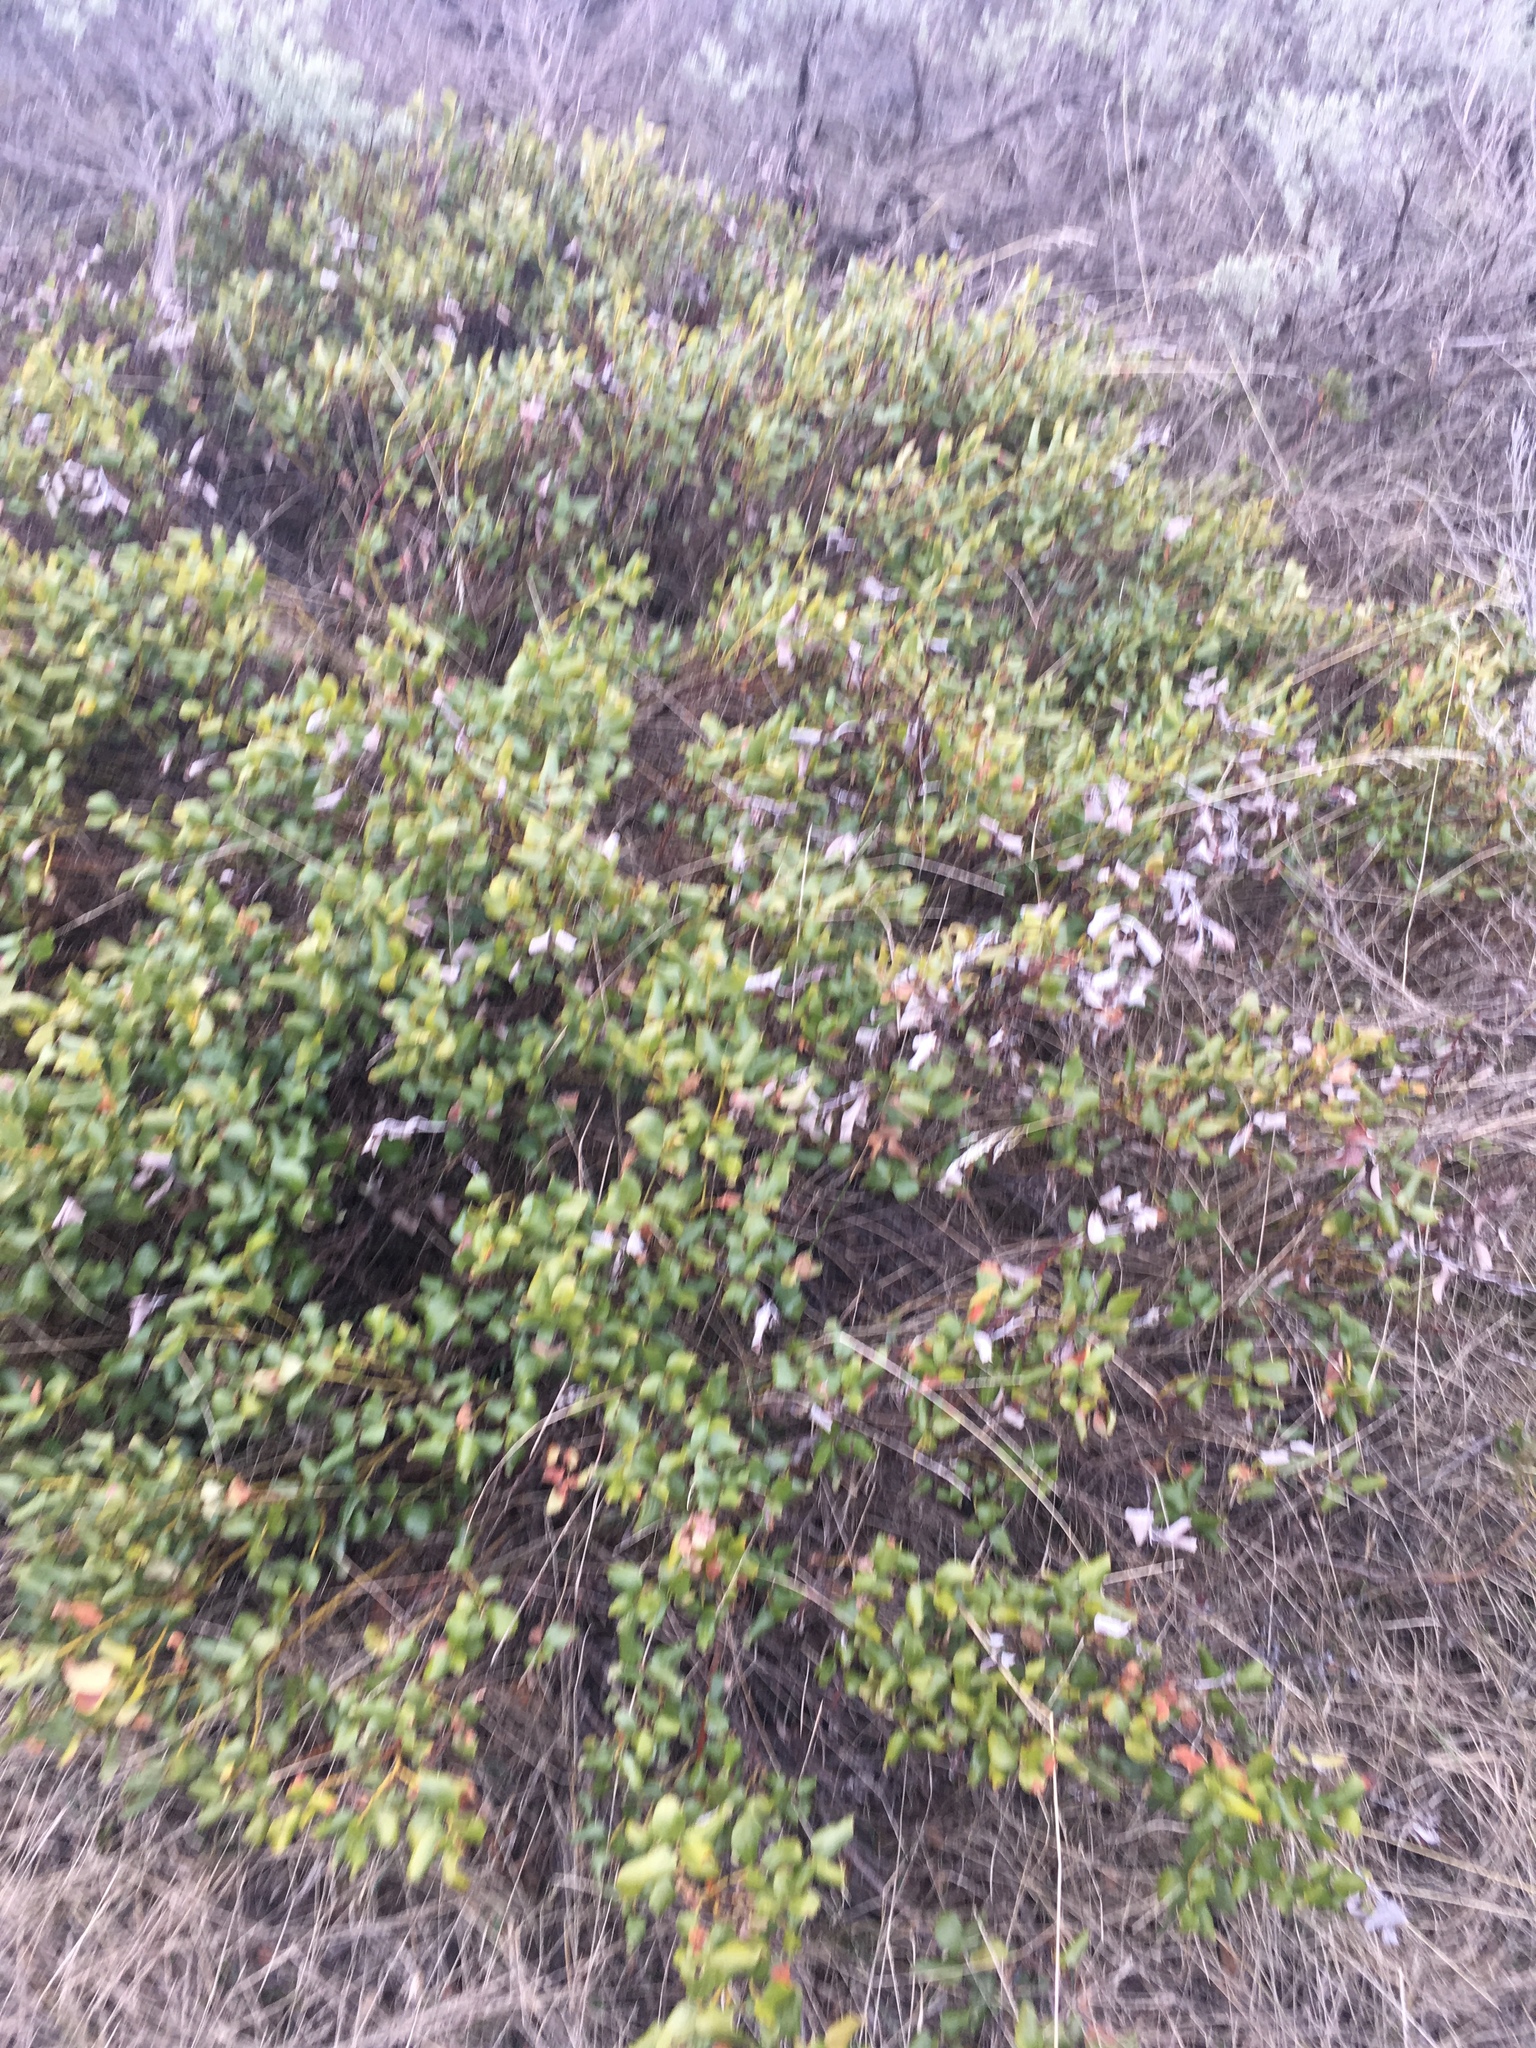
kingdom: Plantae
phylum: Tracheophyta
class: Magnoliopsida
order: Rosales
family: Rhamnaceae
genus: Ceanothus
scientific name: Ceanothus velutinus
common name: Snowbrush
